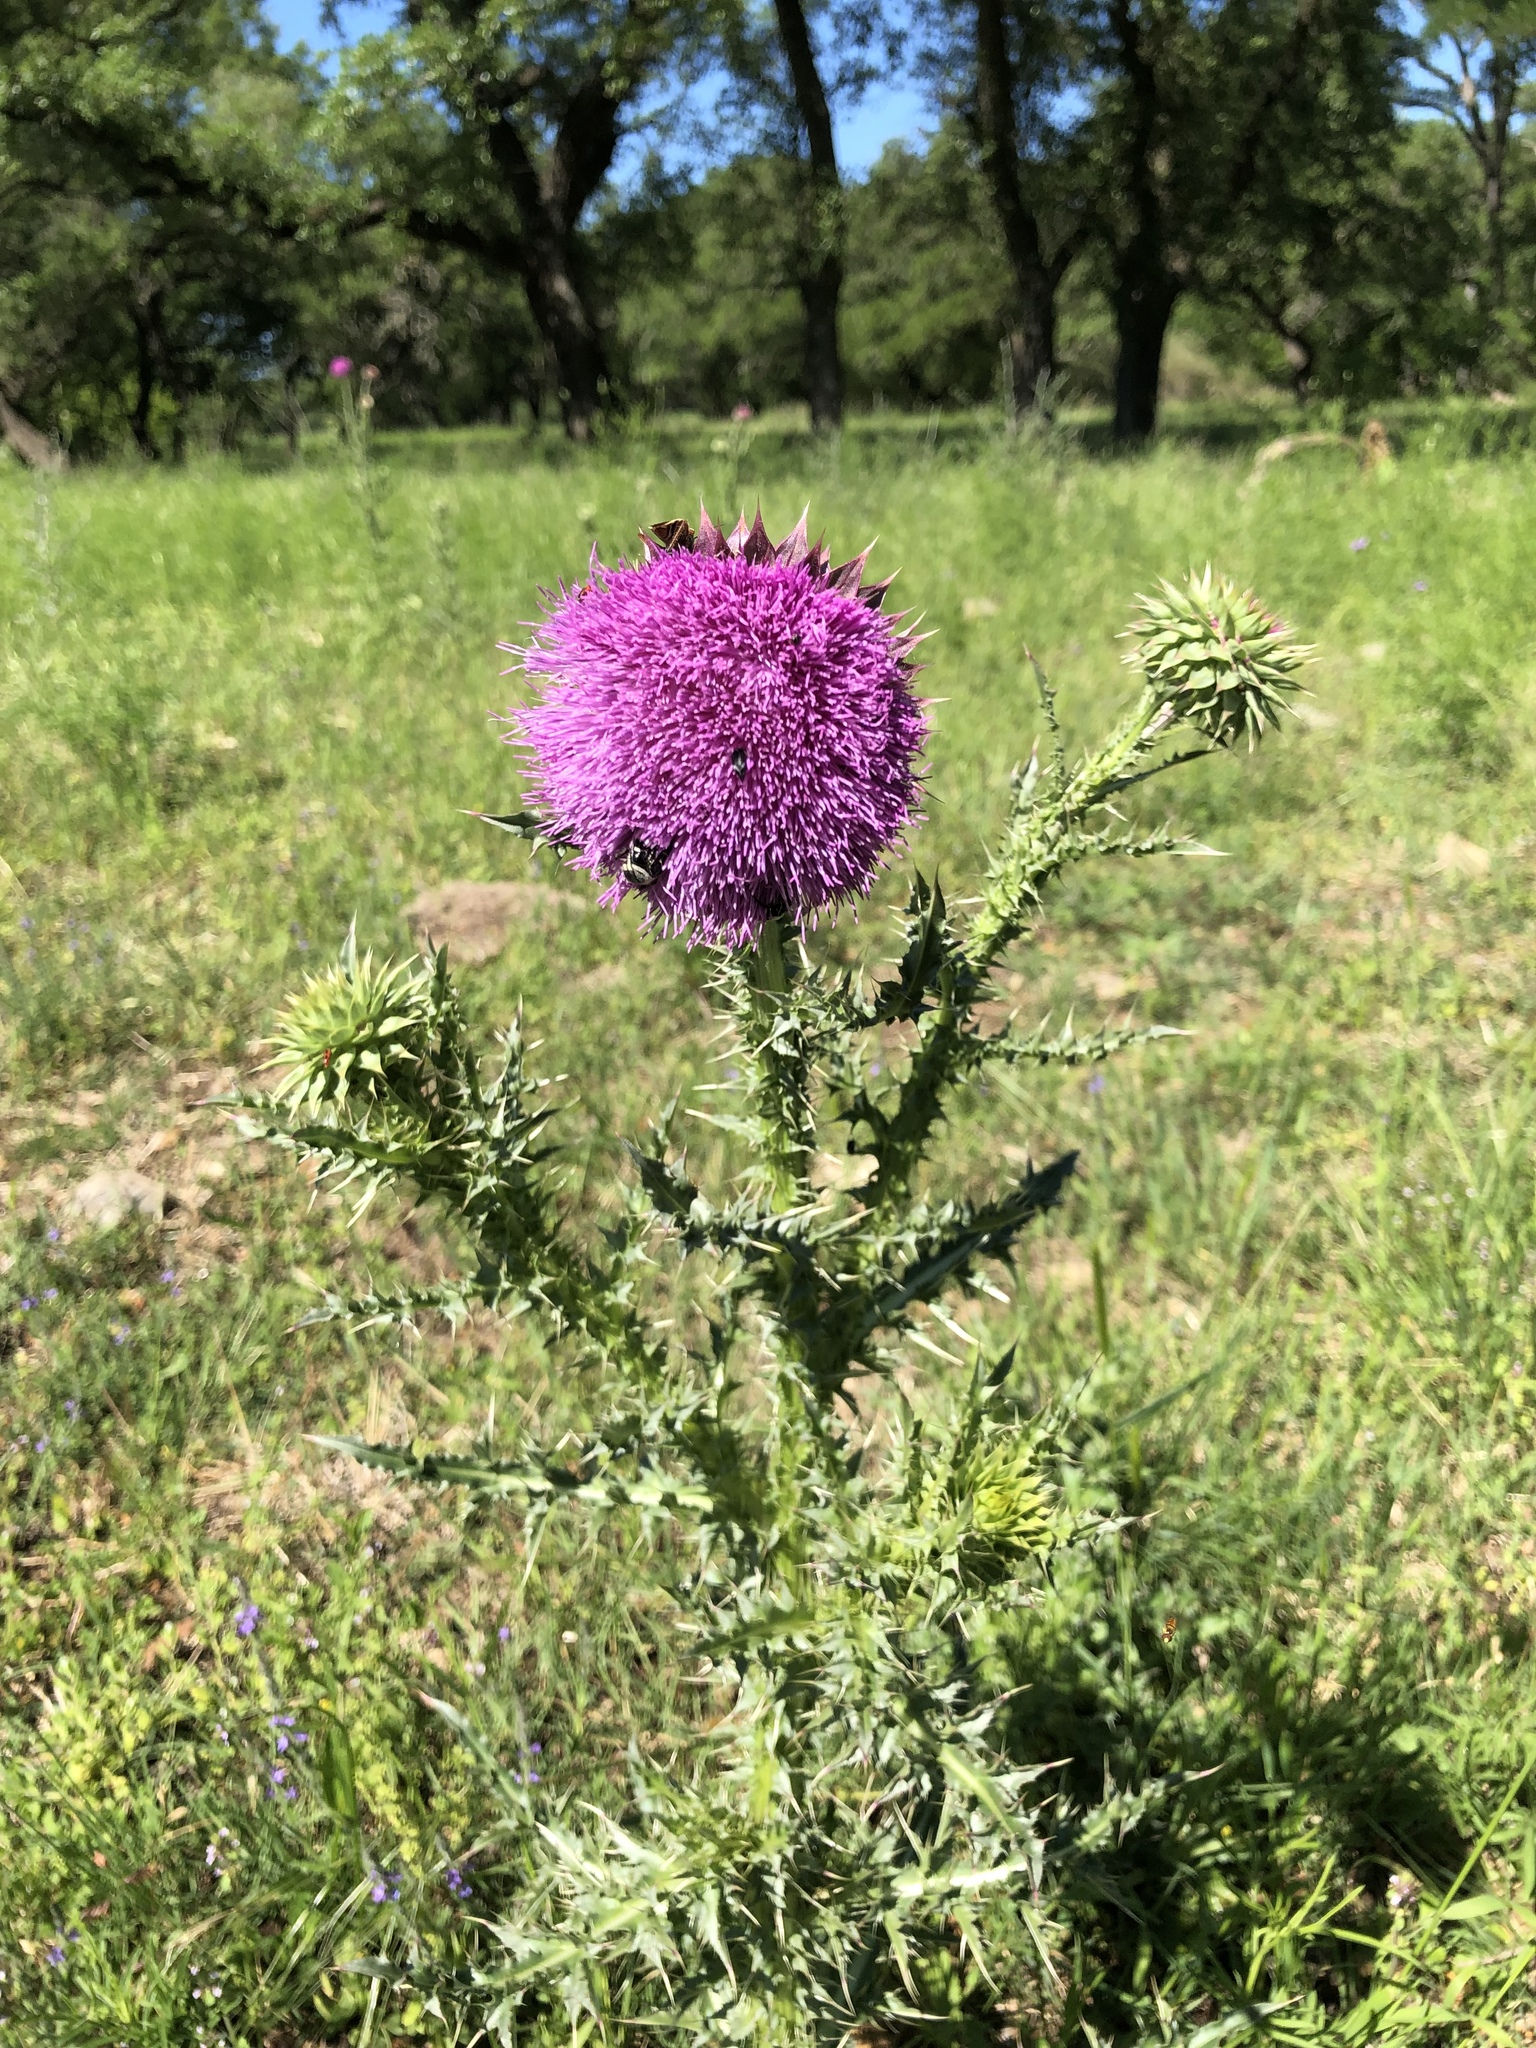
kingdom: Plantae
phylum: Tracheophyta
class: Magnoliopsida
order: Asterales
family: Asteraceae
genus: Carduus
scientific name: Carduus nutans
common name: Musk thistle
